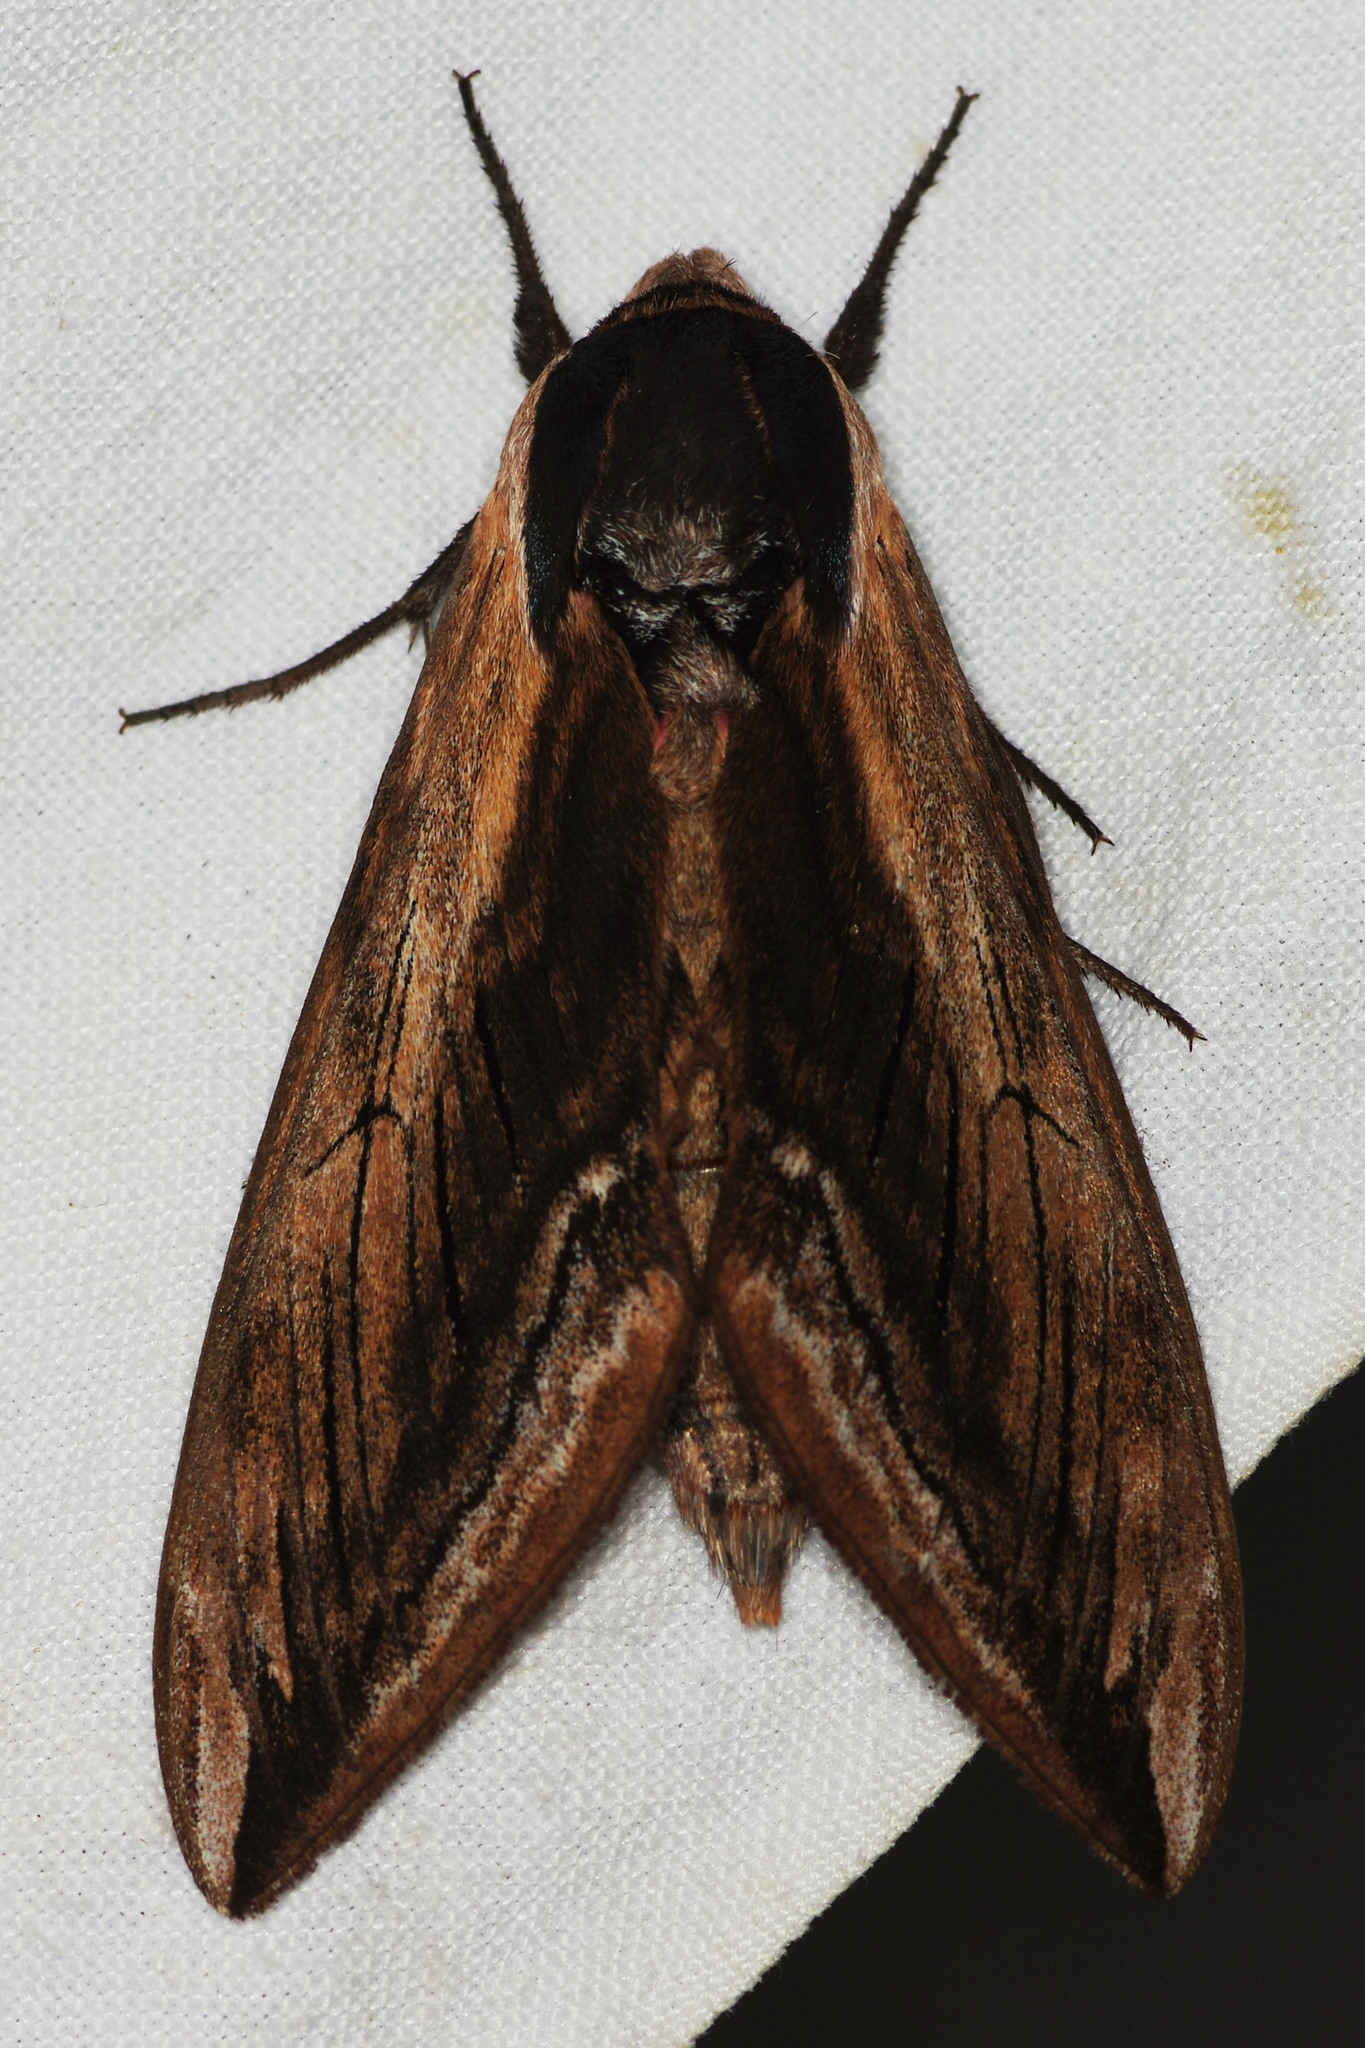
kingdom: Animalia
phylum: Arthropoda
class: Insecta
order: Lepidoptera
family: Sphingidae
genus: Sphinx
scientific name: Sphinx ligustri
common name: Privet hawk-moth
